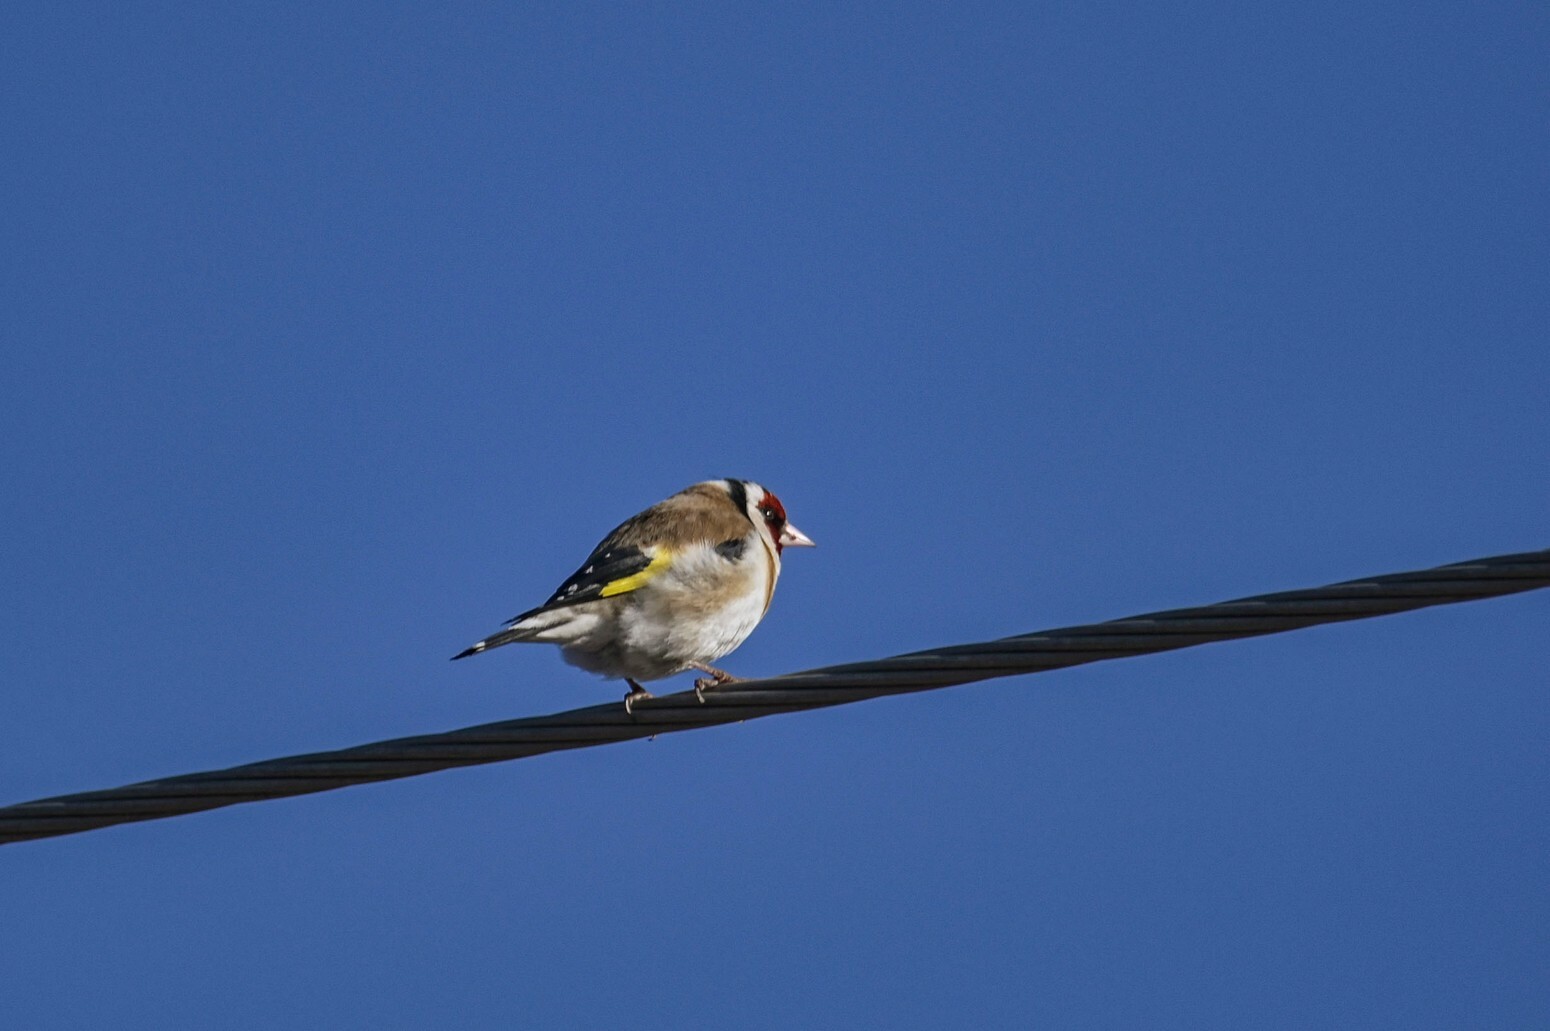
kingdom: Animalia
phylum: Chordata
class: Aves
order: Passeriformes
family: Fringillidae
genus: Carduelis
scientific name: Carduelis carduelis
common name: European goldfinch
